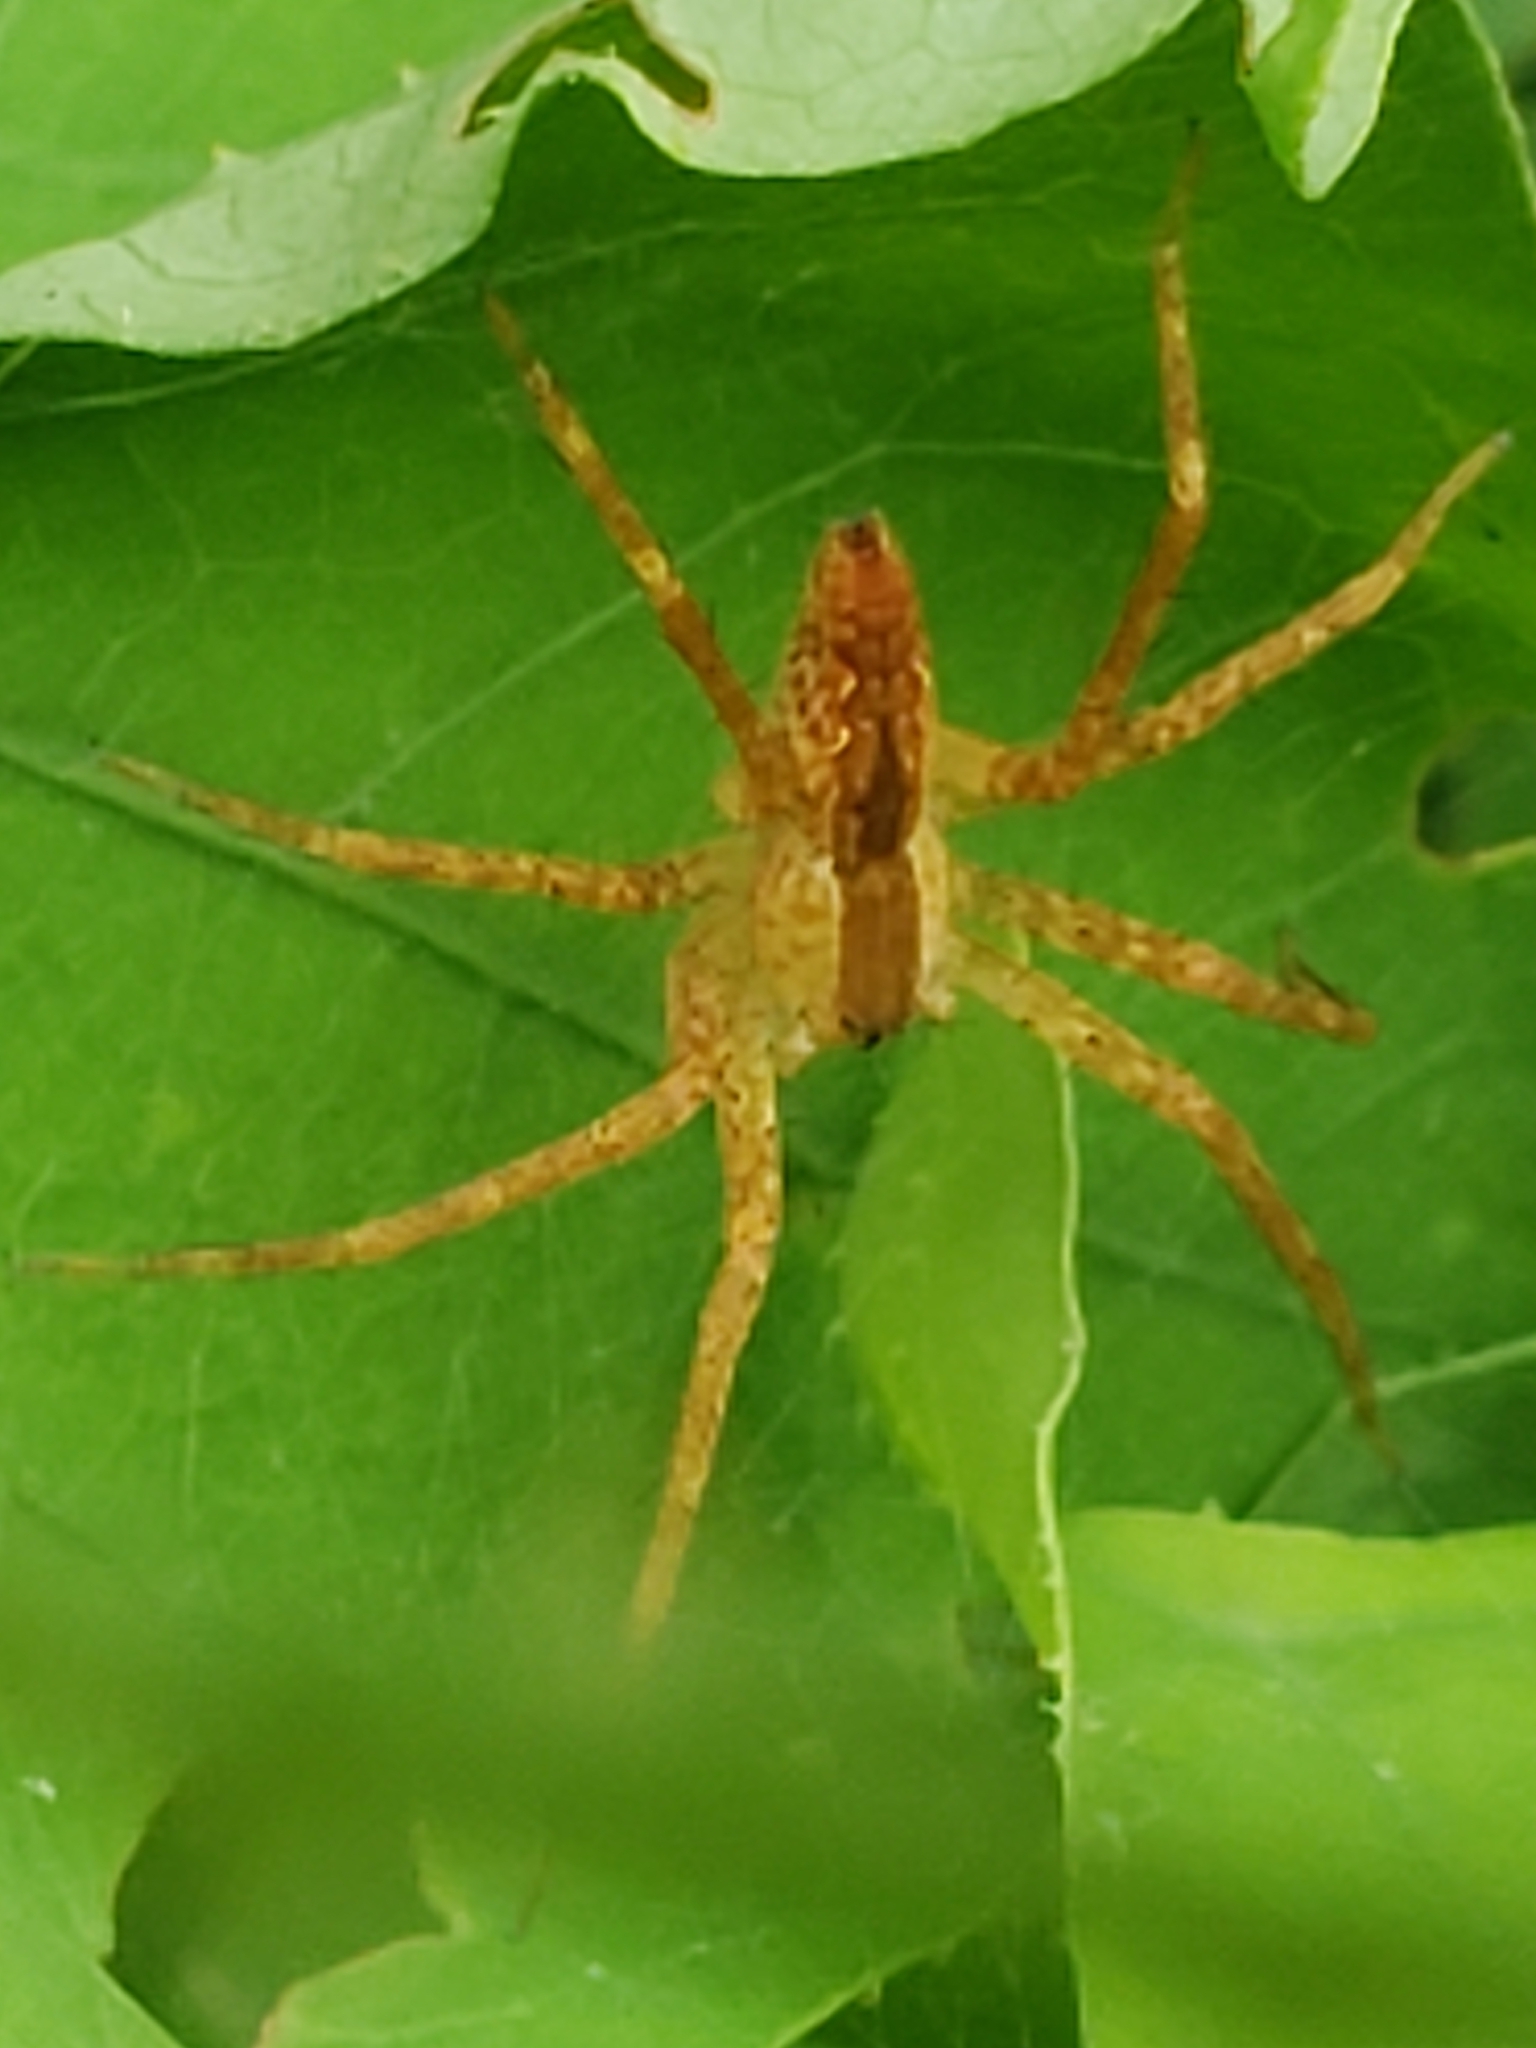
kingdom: Animalia
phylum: Arthropoda
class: Arachnida
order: Araneae
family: Pisauridae
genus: Pisaurina
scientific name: Pisaurina mira
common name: American nursery web spider
